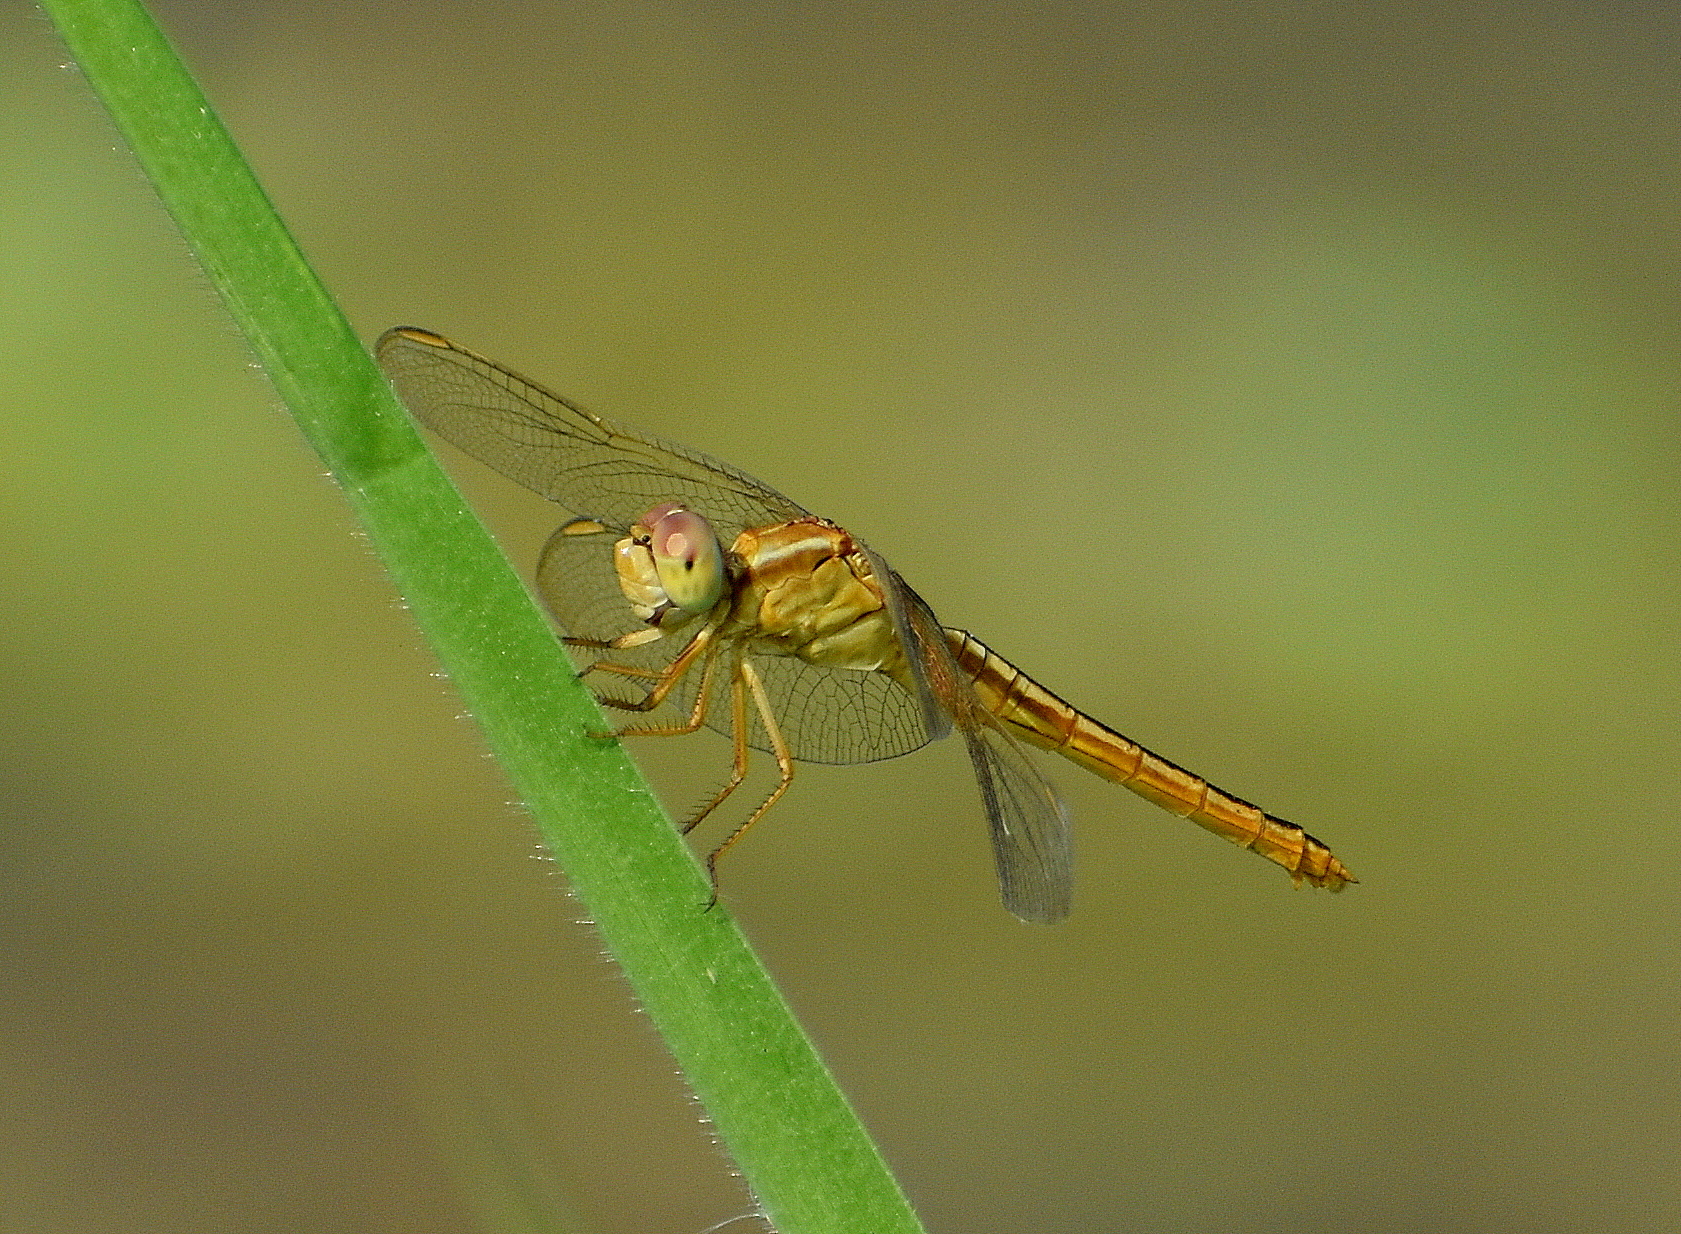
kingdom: Animalia
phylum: Arthropoda
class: Insecta
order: Odonata
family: Libellulidae
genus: Crocothemis
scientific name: Crocothemis servilia
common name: Scarlet skimmer
